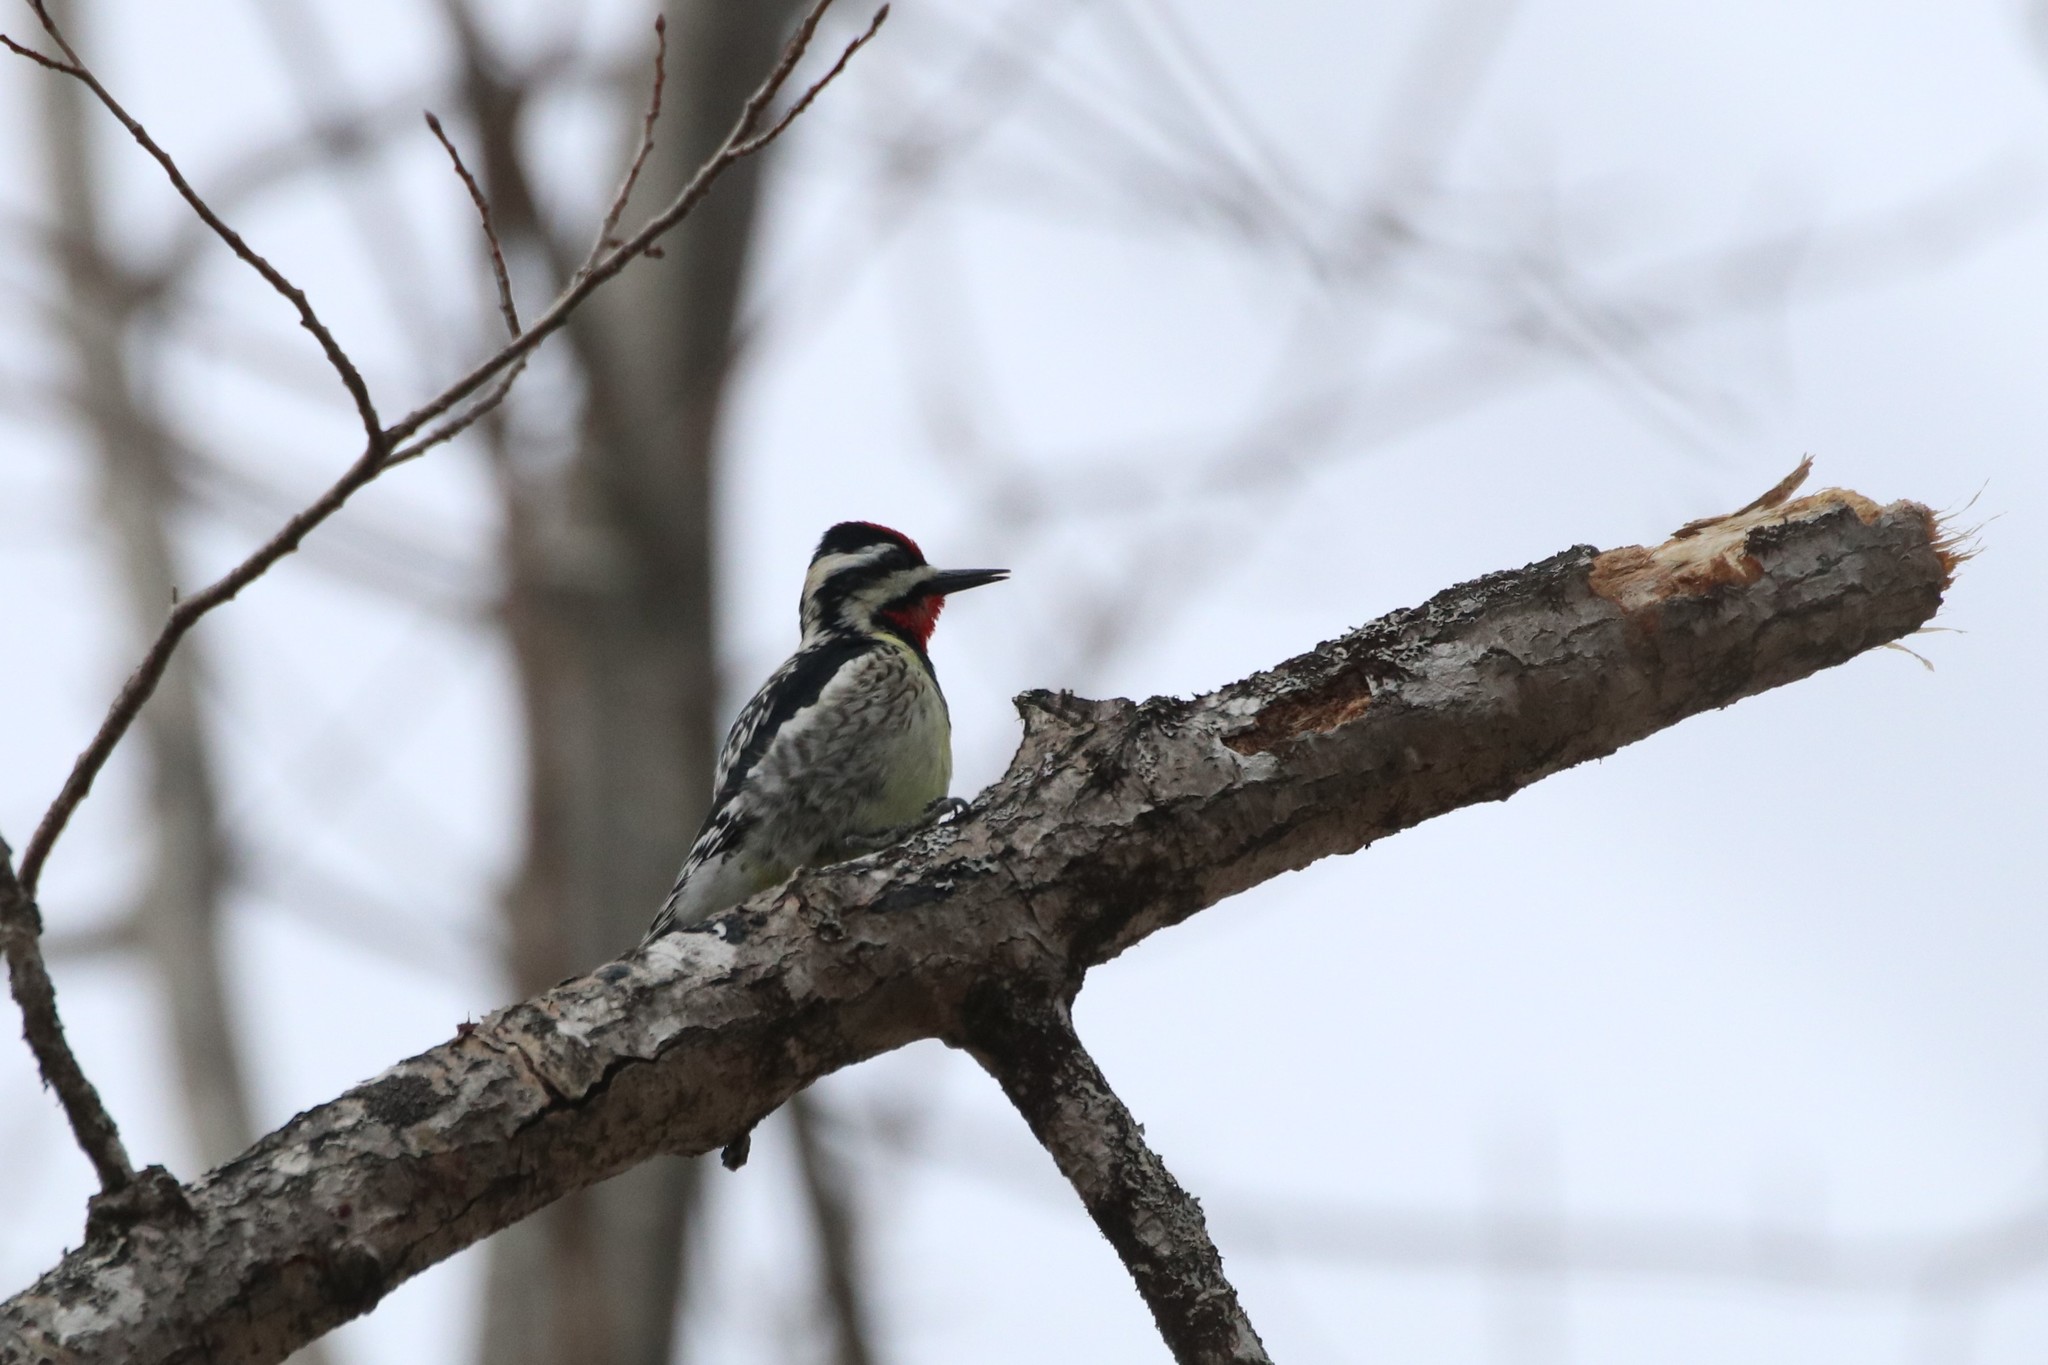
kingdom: Animalia
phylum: Chordata
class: Aves
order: Piciformes
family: Picidae
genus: Sphyrapicus
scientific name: Sphyrapicus varius
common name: Yellow-bellied sapsucker
